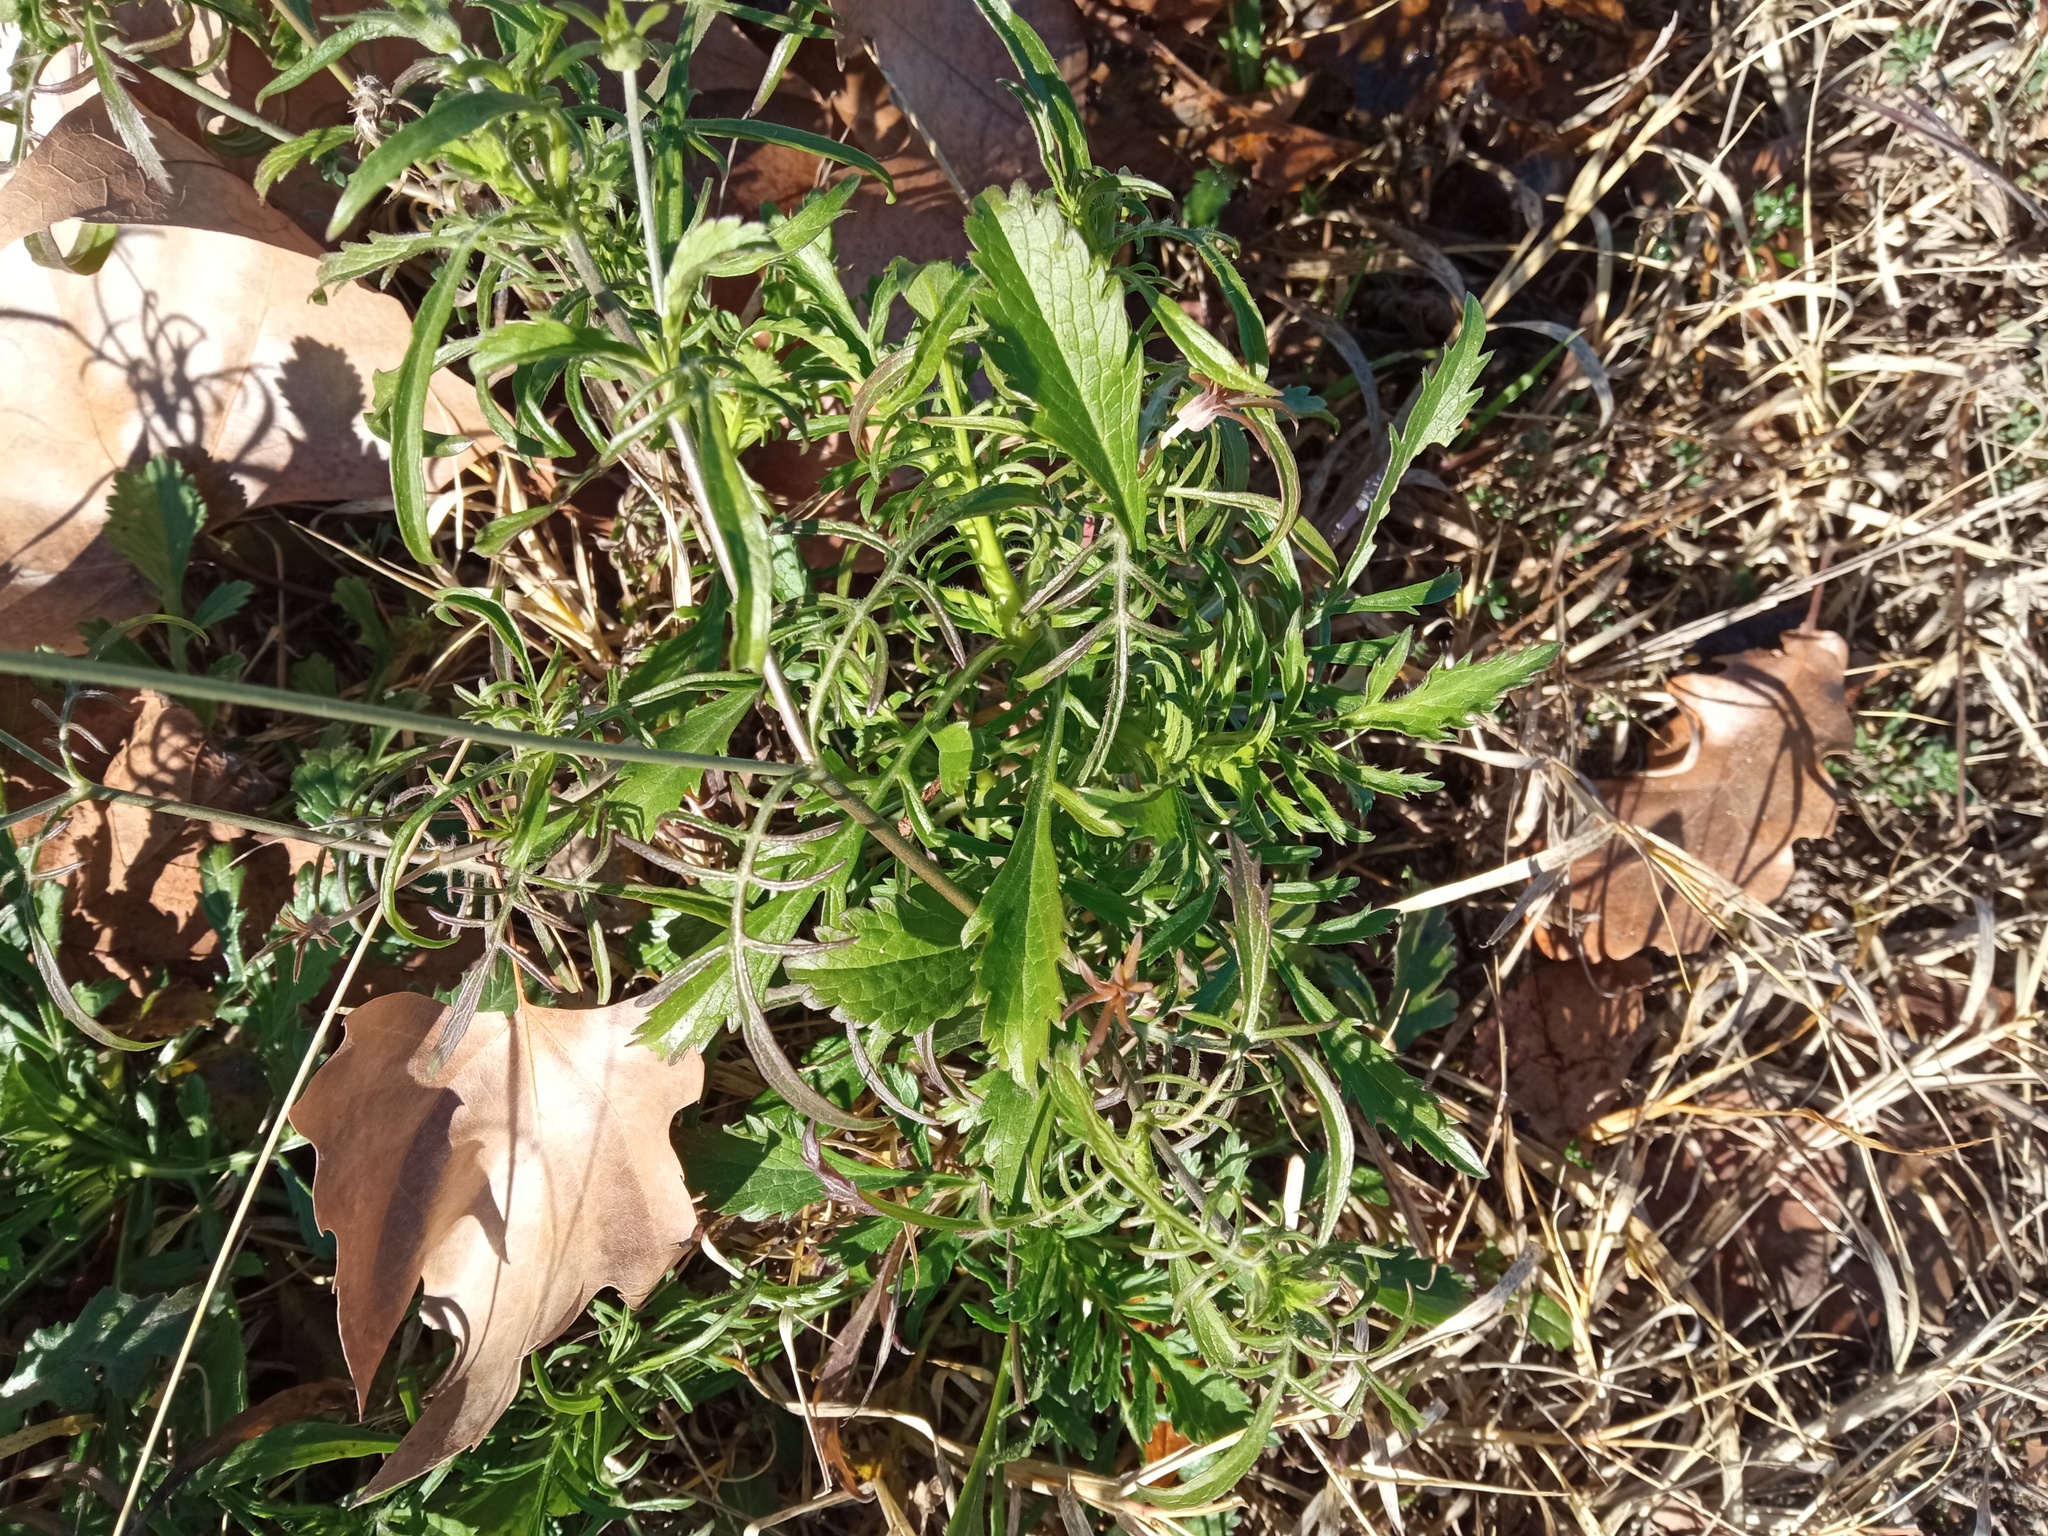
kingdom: Plantae
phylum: Tracheophyta
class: Magnoliopsida
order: Dipsacales
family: Caprifoliaceae
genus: Sixalix
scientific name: Sixalix atropurpurea
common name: Sweet scabious
